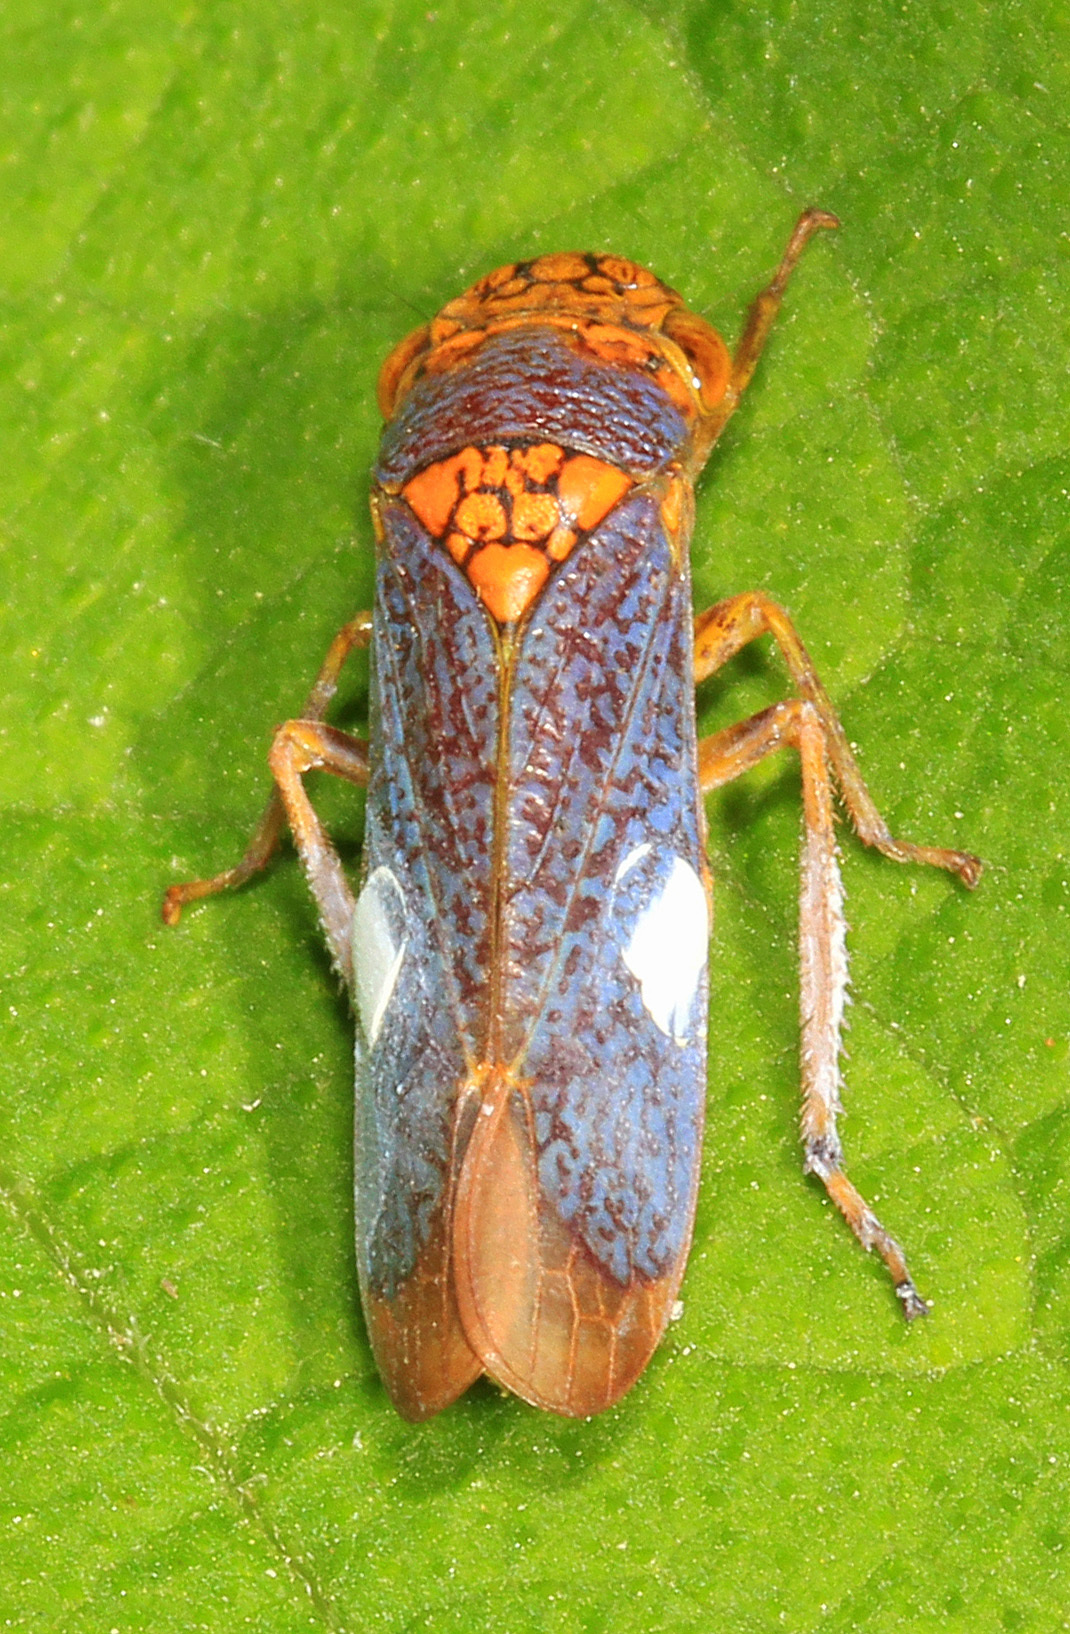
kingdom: Animalia
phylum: Arthropoda
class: Insecta
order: Hemiptera
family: Cicadellidae
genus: Oncometopia
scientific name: Oncometopia orbona
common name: Broad-headed sharpshooter
